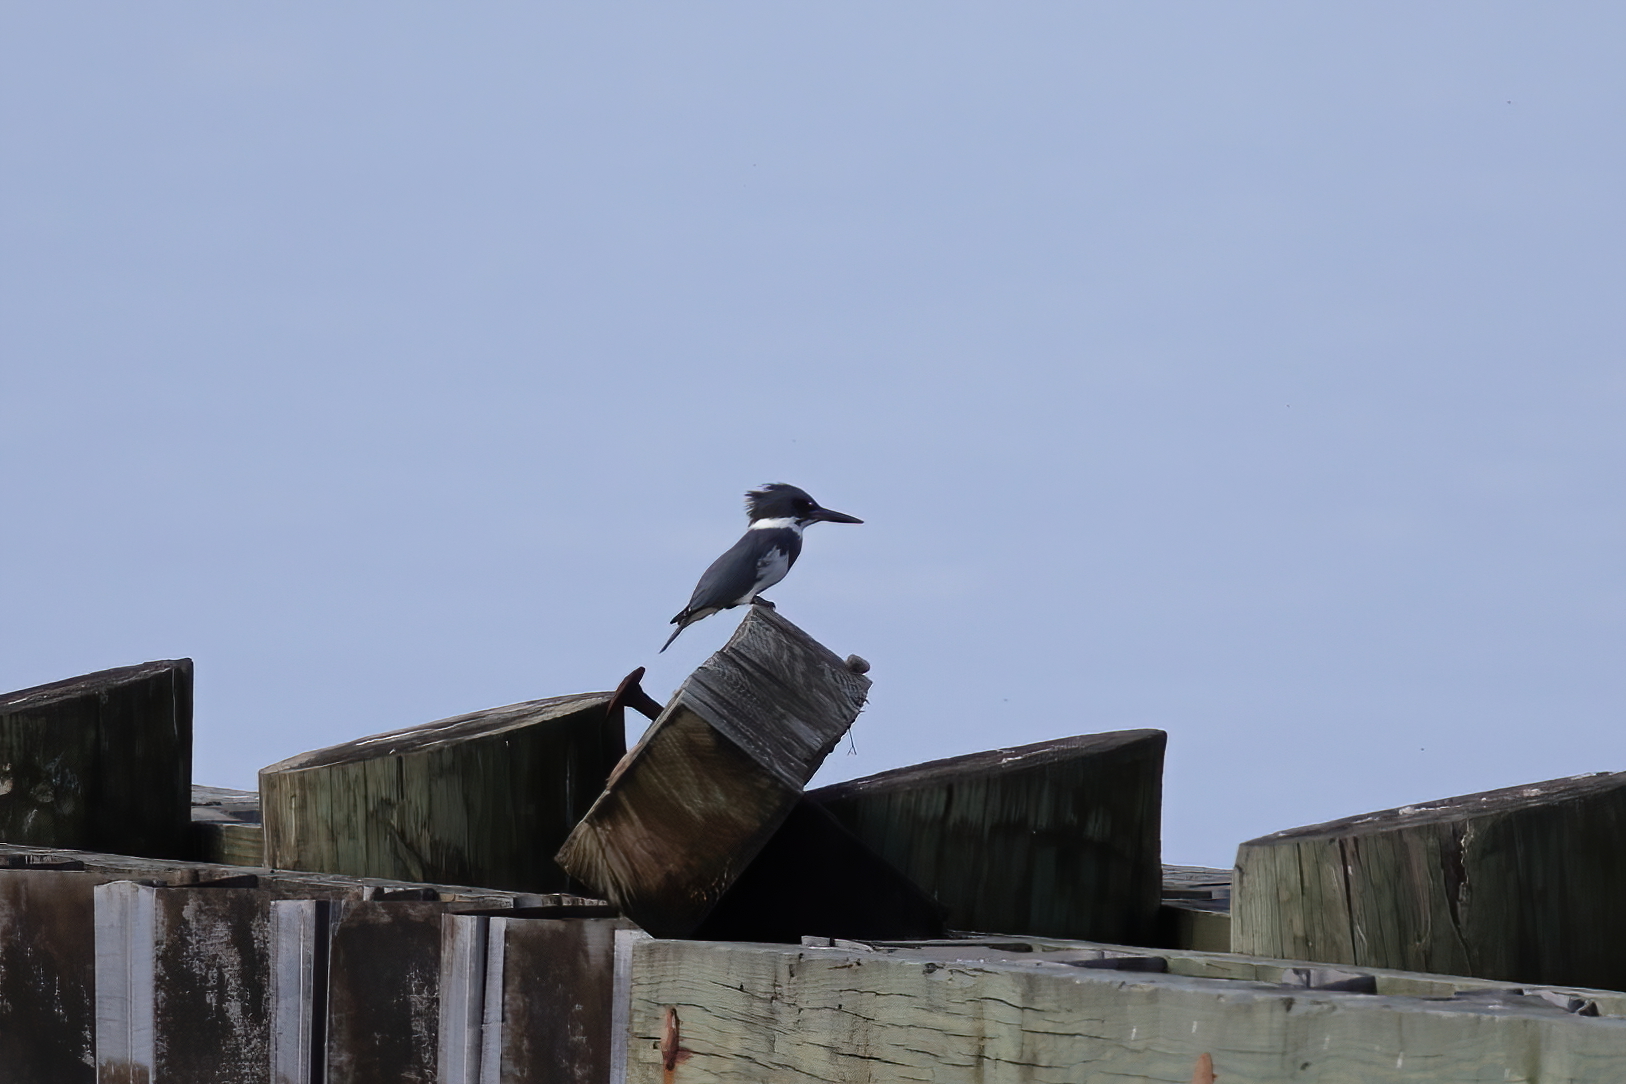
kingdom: Animalia
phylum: Chordata
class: Aves
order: Coraciiformes
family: Alcedinidae
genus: Megaceryle
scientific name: Megaceryle alcyon
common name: Belted kingfisher
